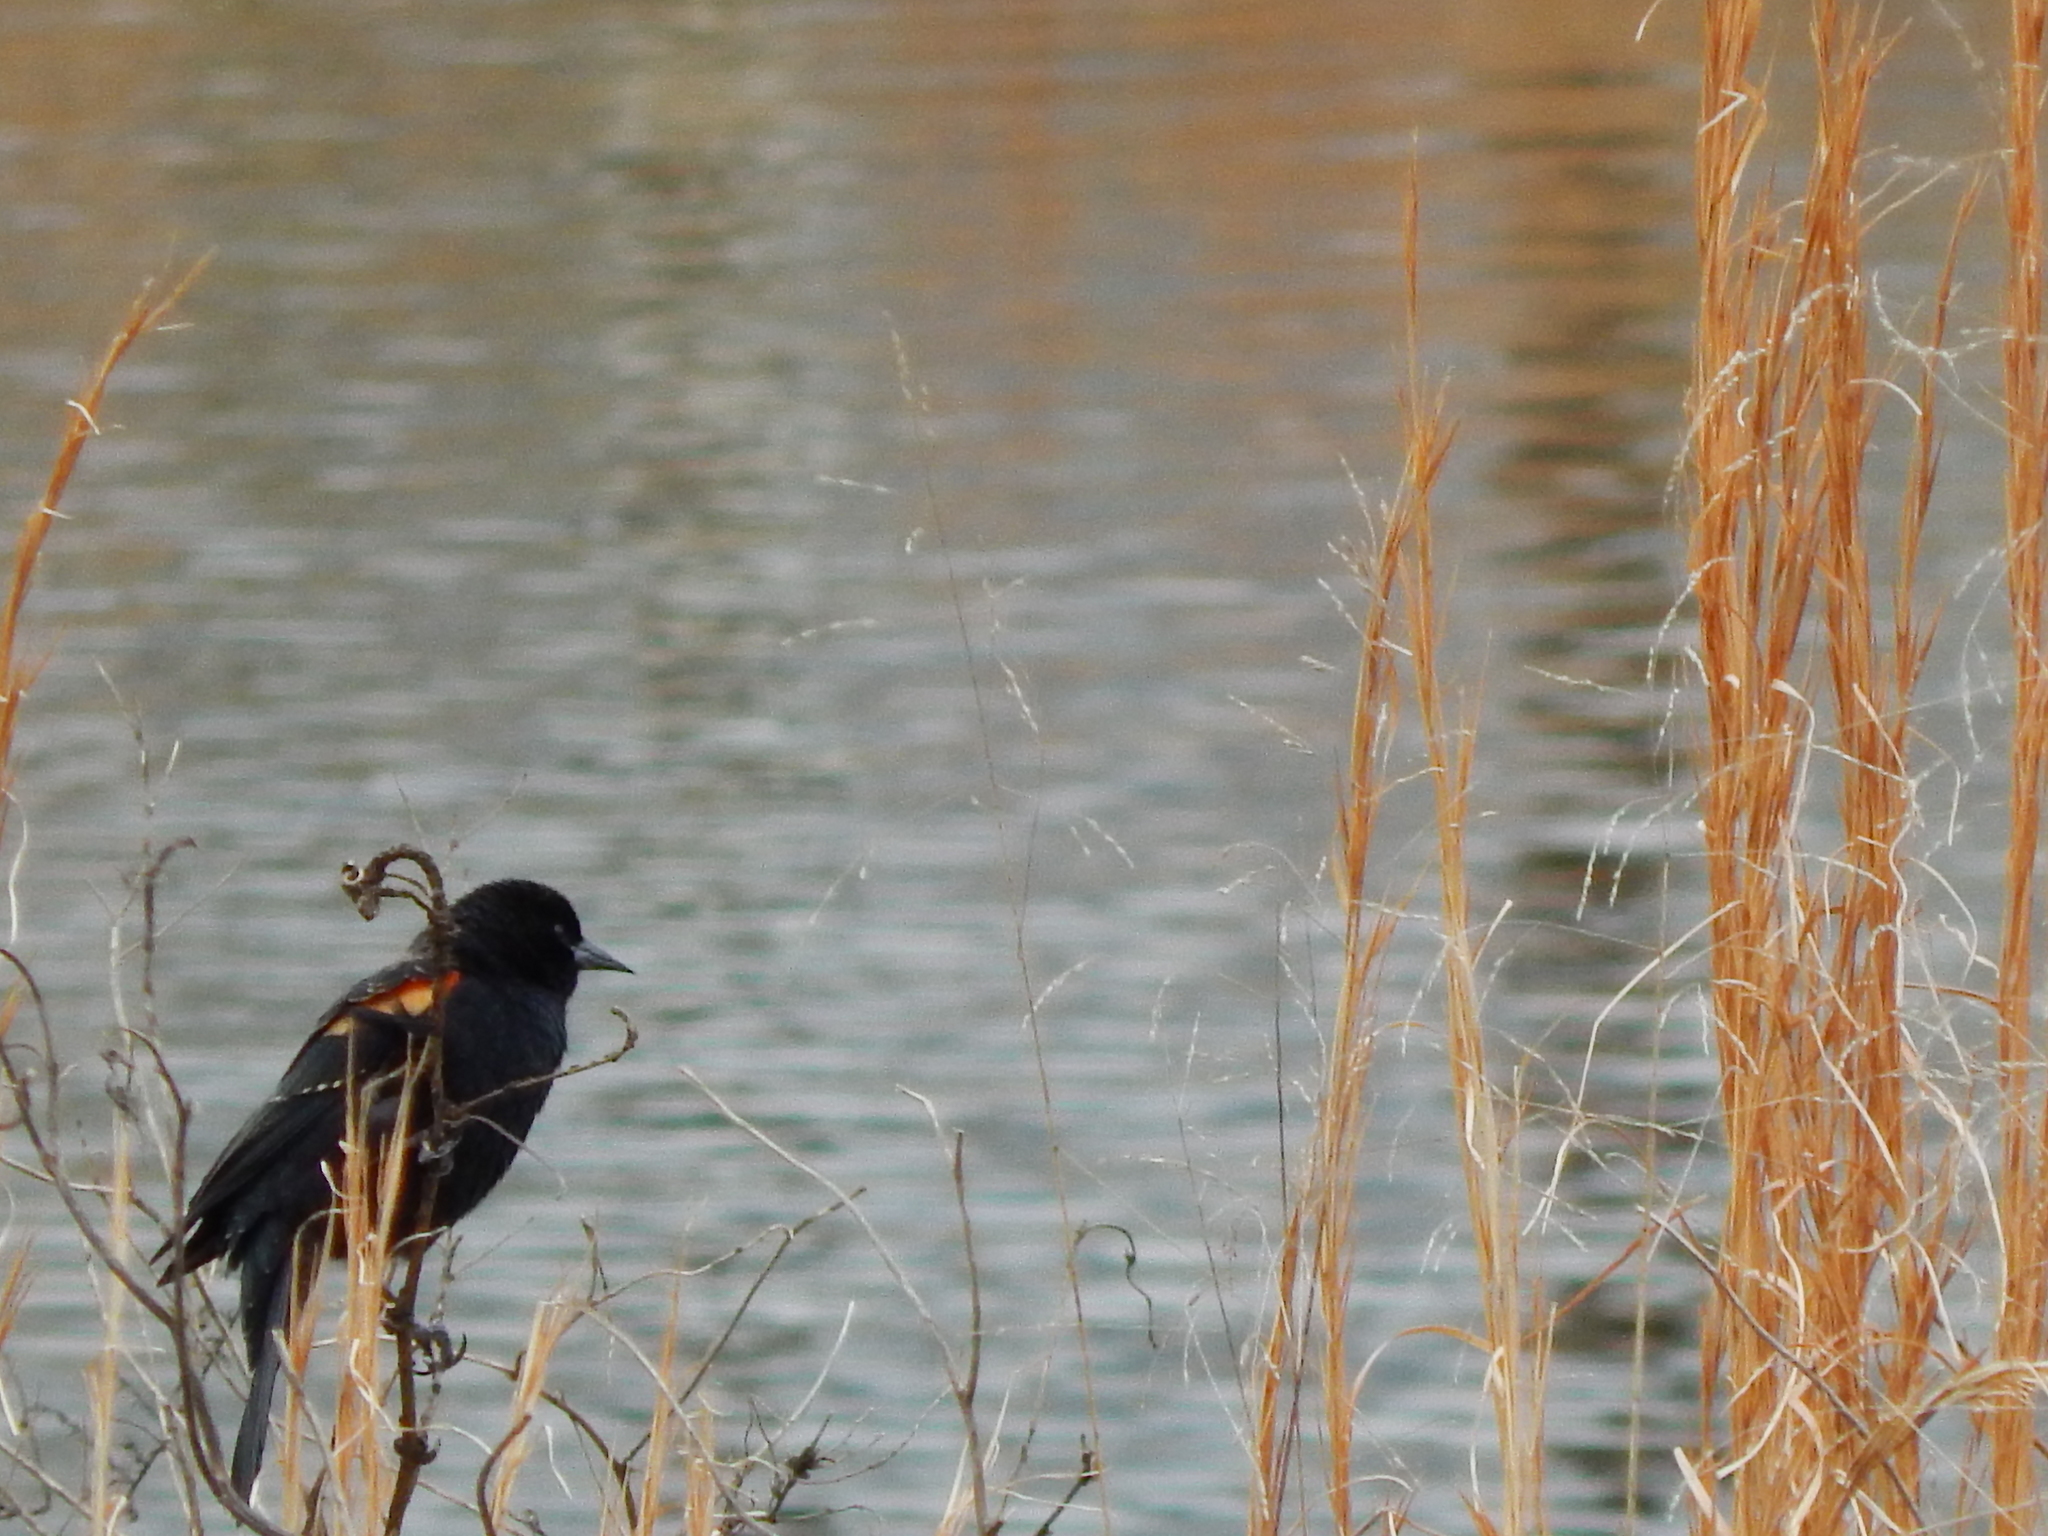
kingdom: Animalia
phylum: Chordata
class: Aves
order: Passeriformes
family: Icteridae
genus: Agelaius
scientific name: Agelaius phoeniceus
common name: Red-winged blackbird
